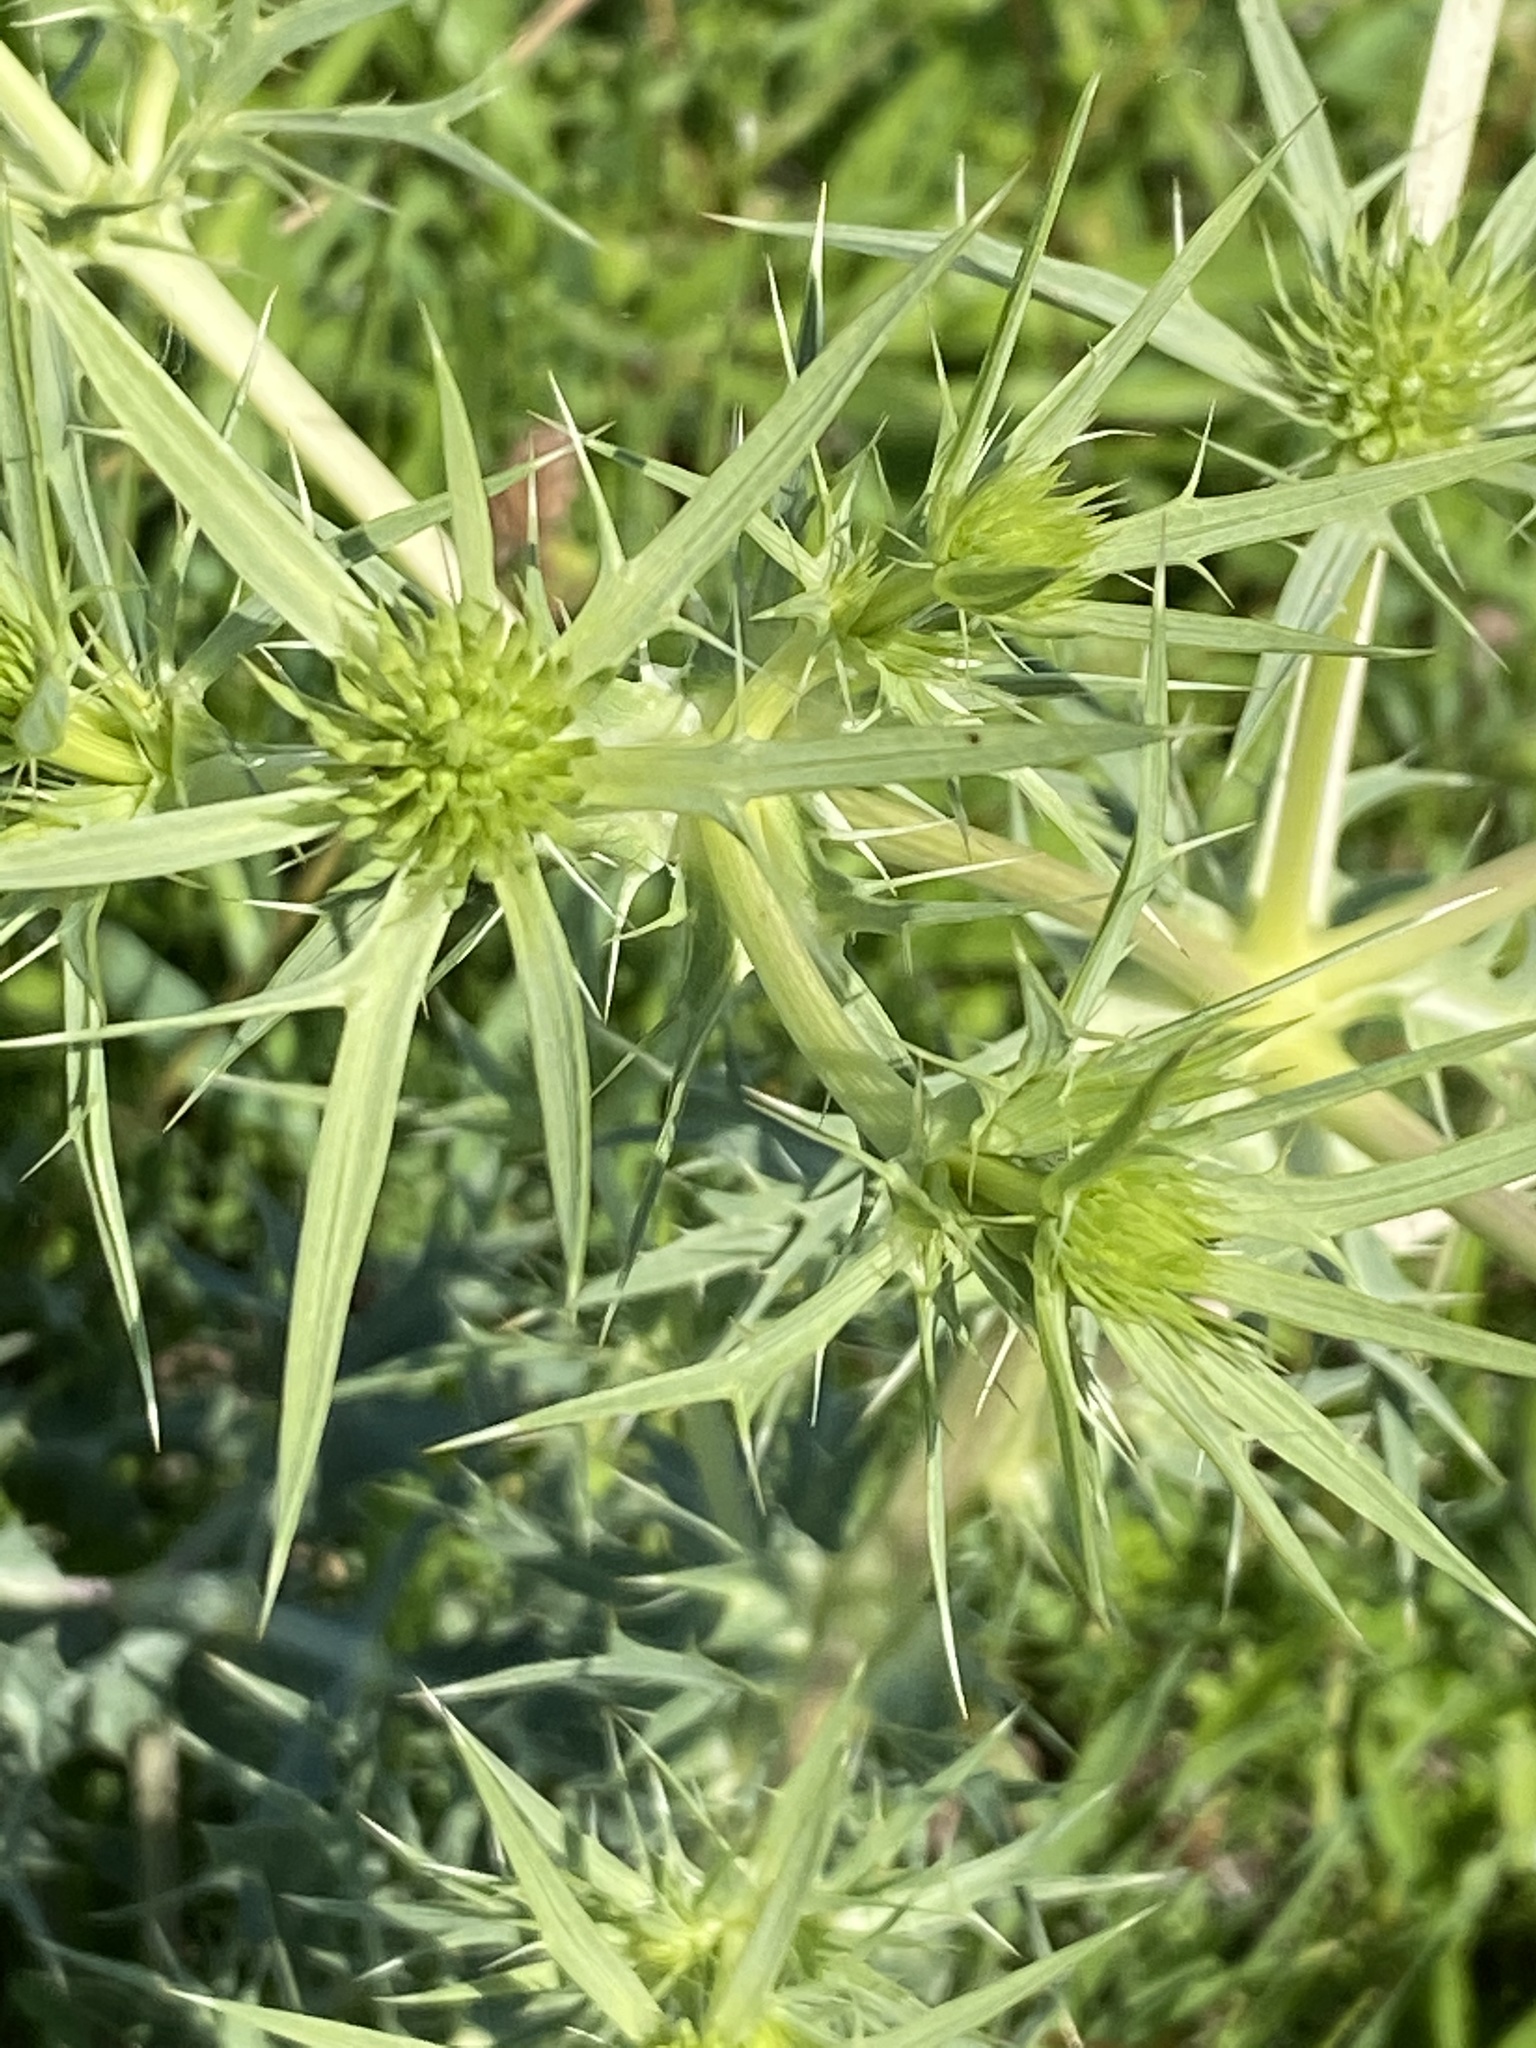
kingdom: Plantae
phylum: Tracheophyta
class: Magnoliopsida
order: Apiales
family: Apiaceae
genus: Eryngium
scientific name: Eryngium campestre
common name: Field eryngo
